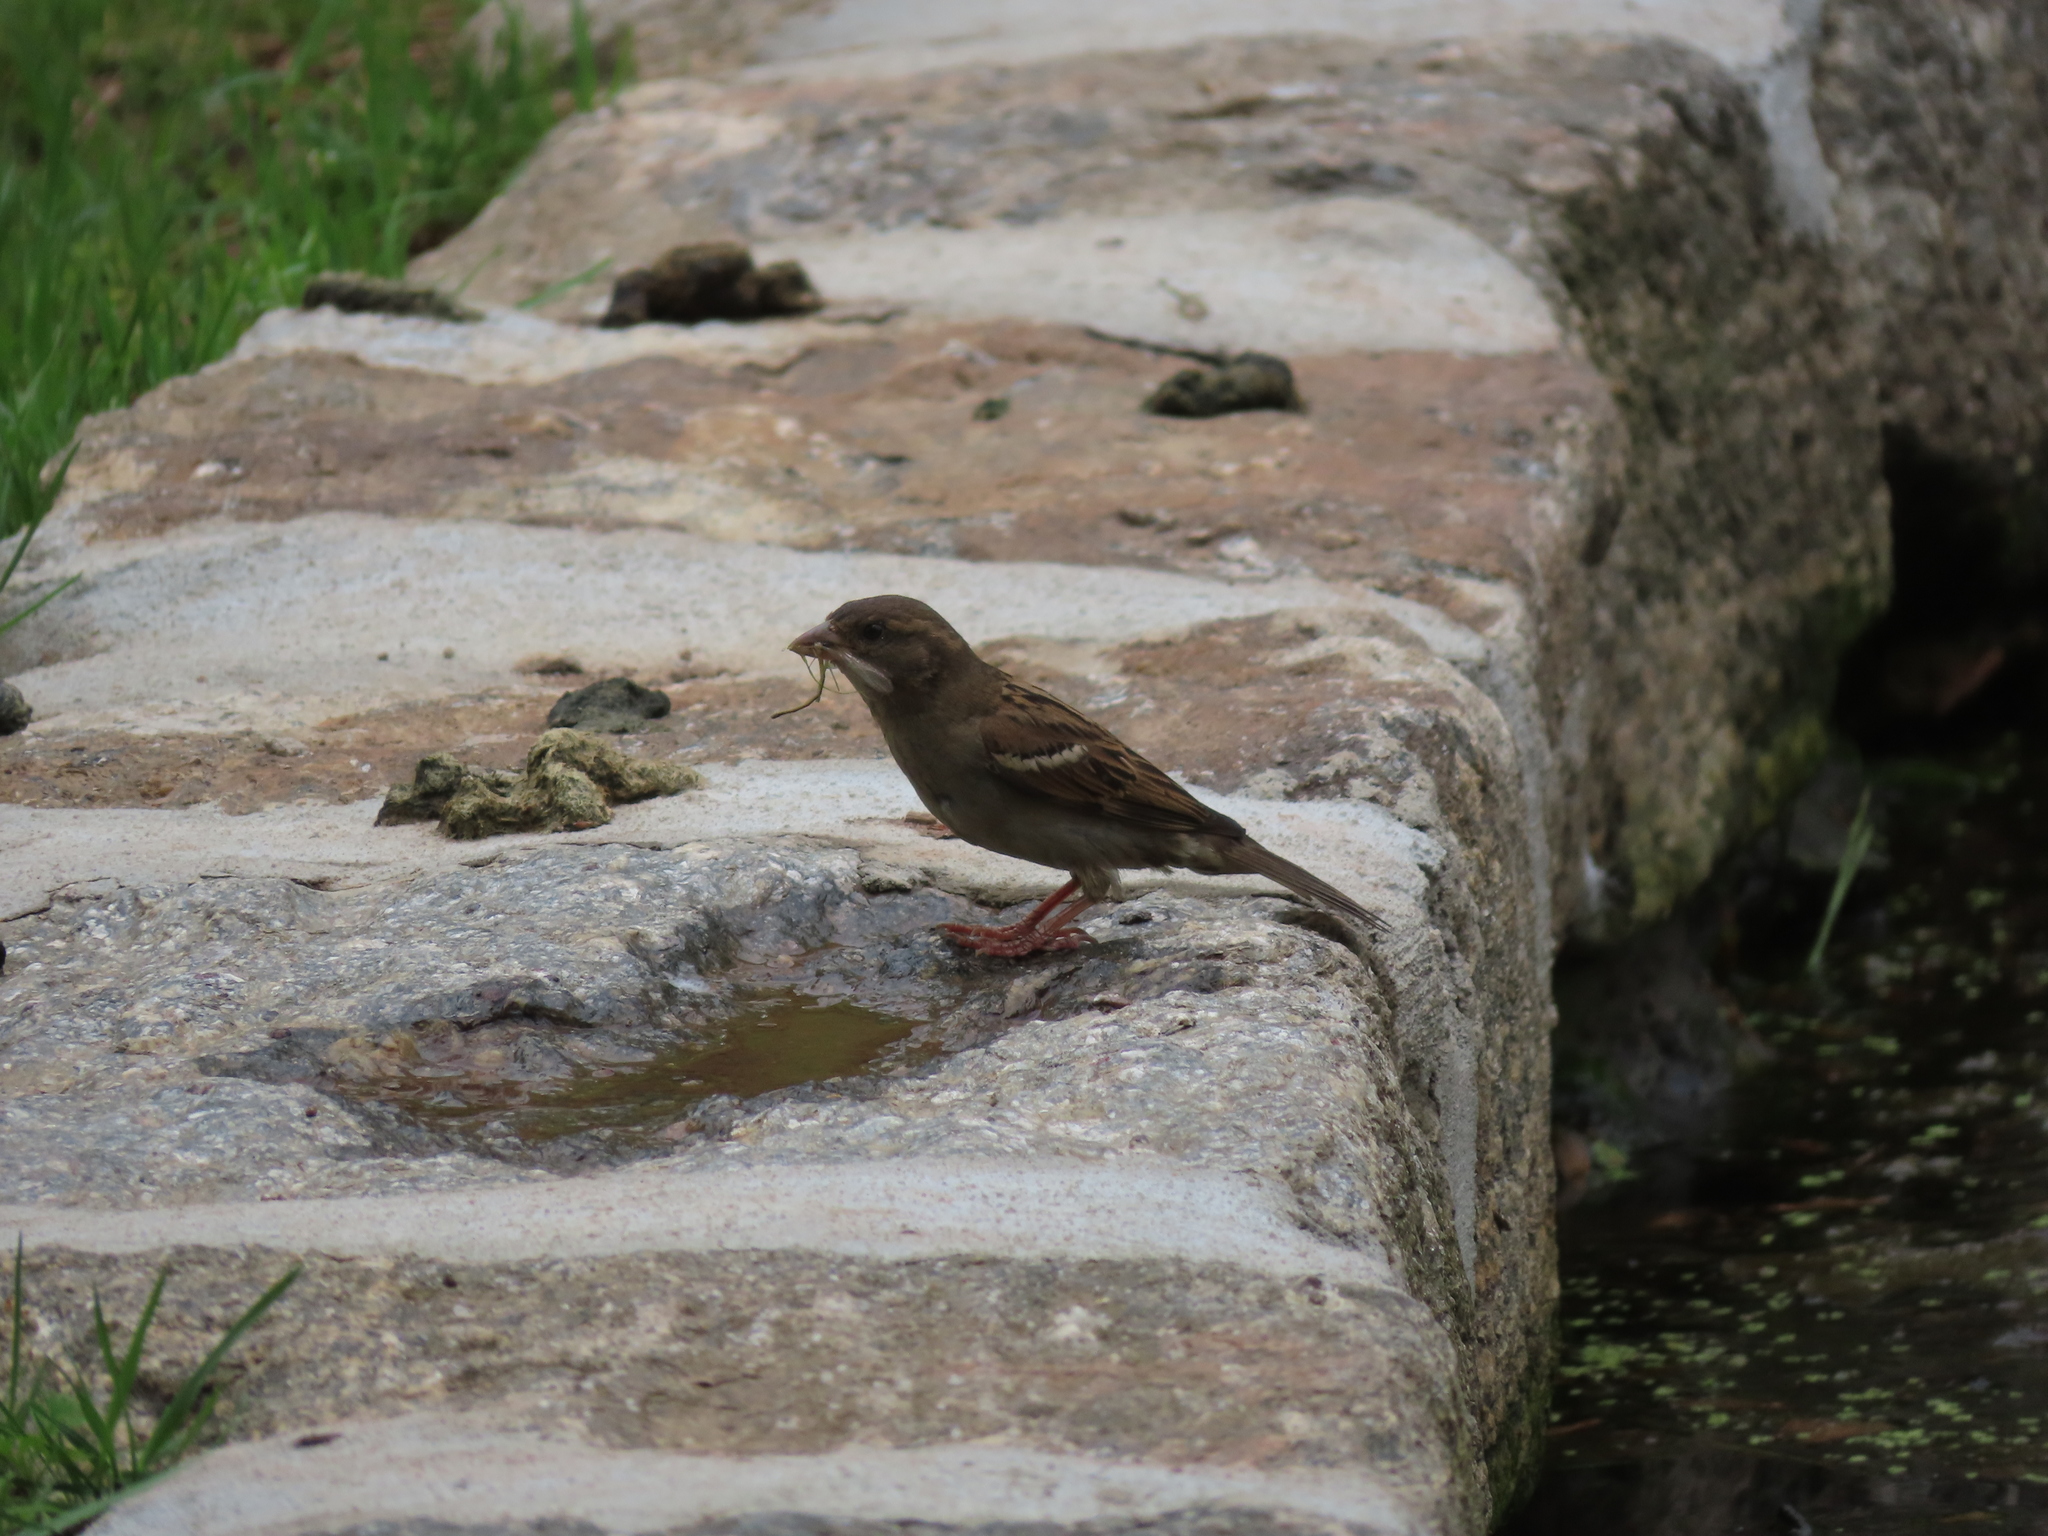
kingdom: Animalia
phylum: Chordata
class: Aves
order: Passeriformes
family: Passeridae
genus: Passer
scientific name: Passer domesticus
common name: House sparrow
